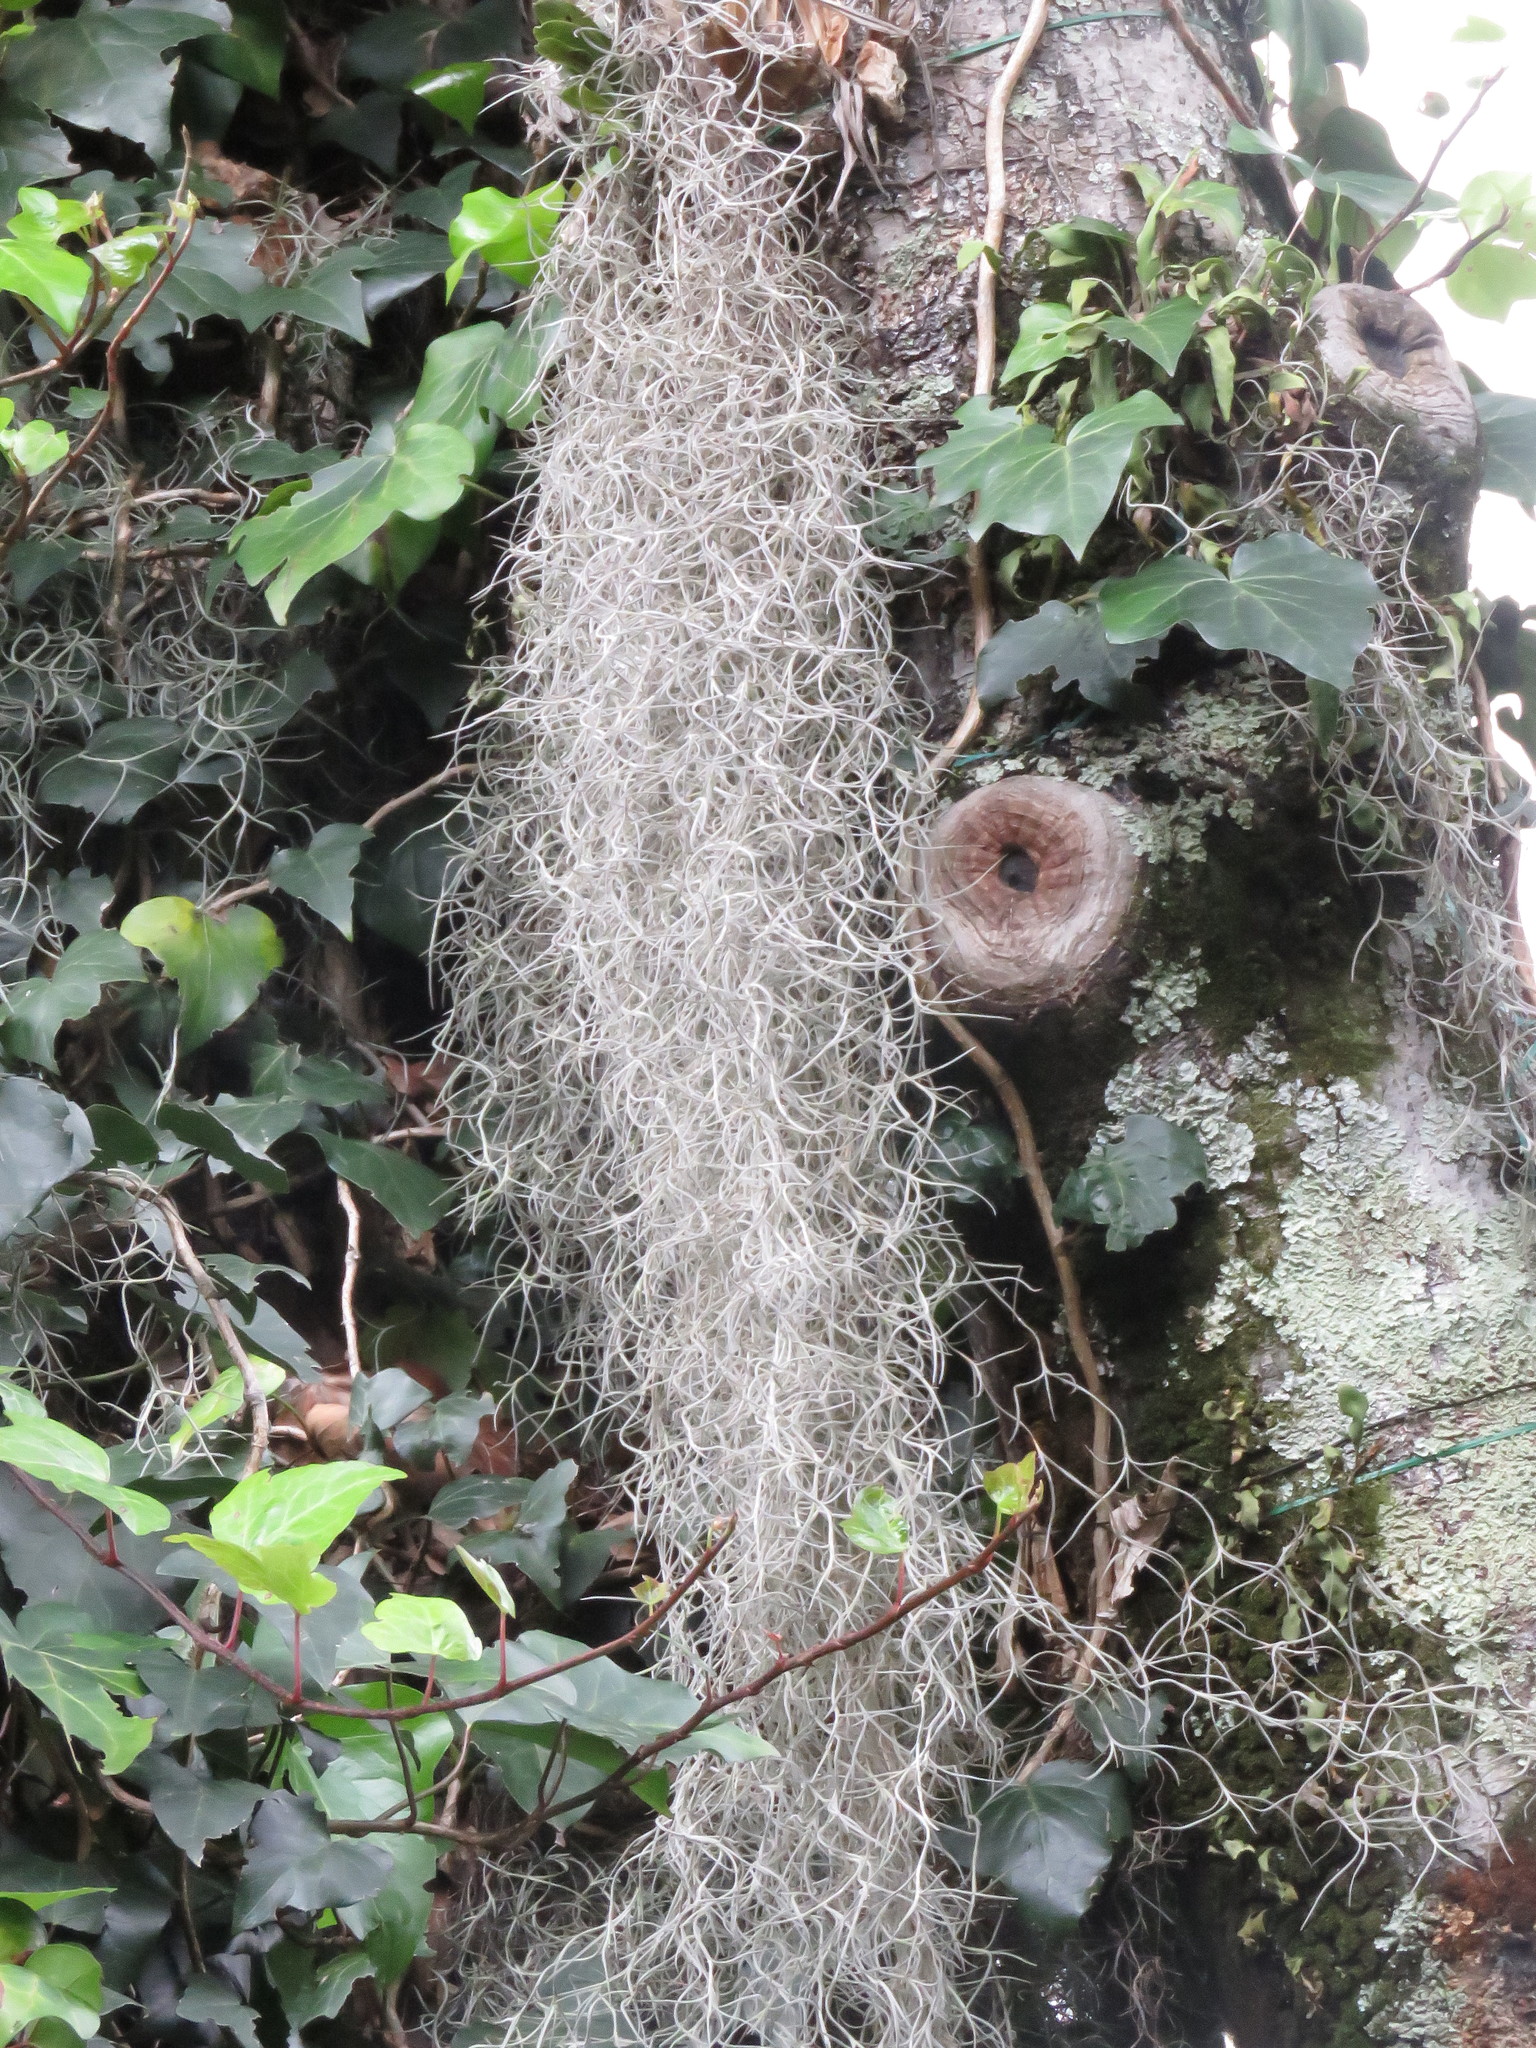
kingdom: Plantae
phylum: Tracheophyta
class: Liliopsida
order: Poales
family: Bromeliaceae
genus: Tillandsia
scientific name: Tillandsia usneoides
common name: Spanish moss
